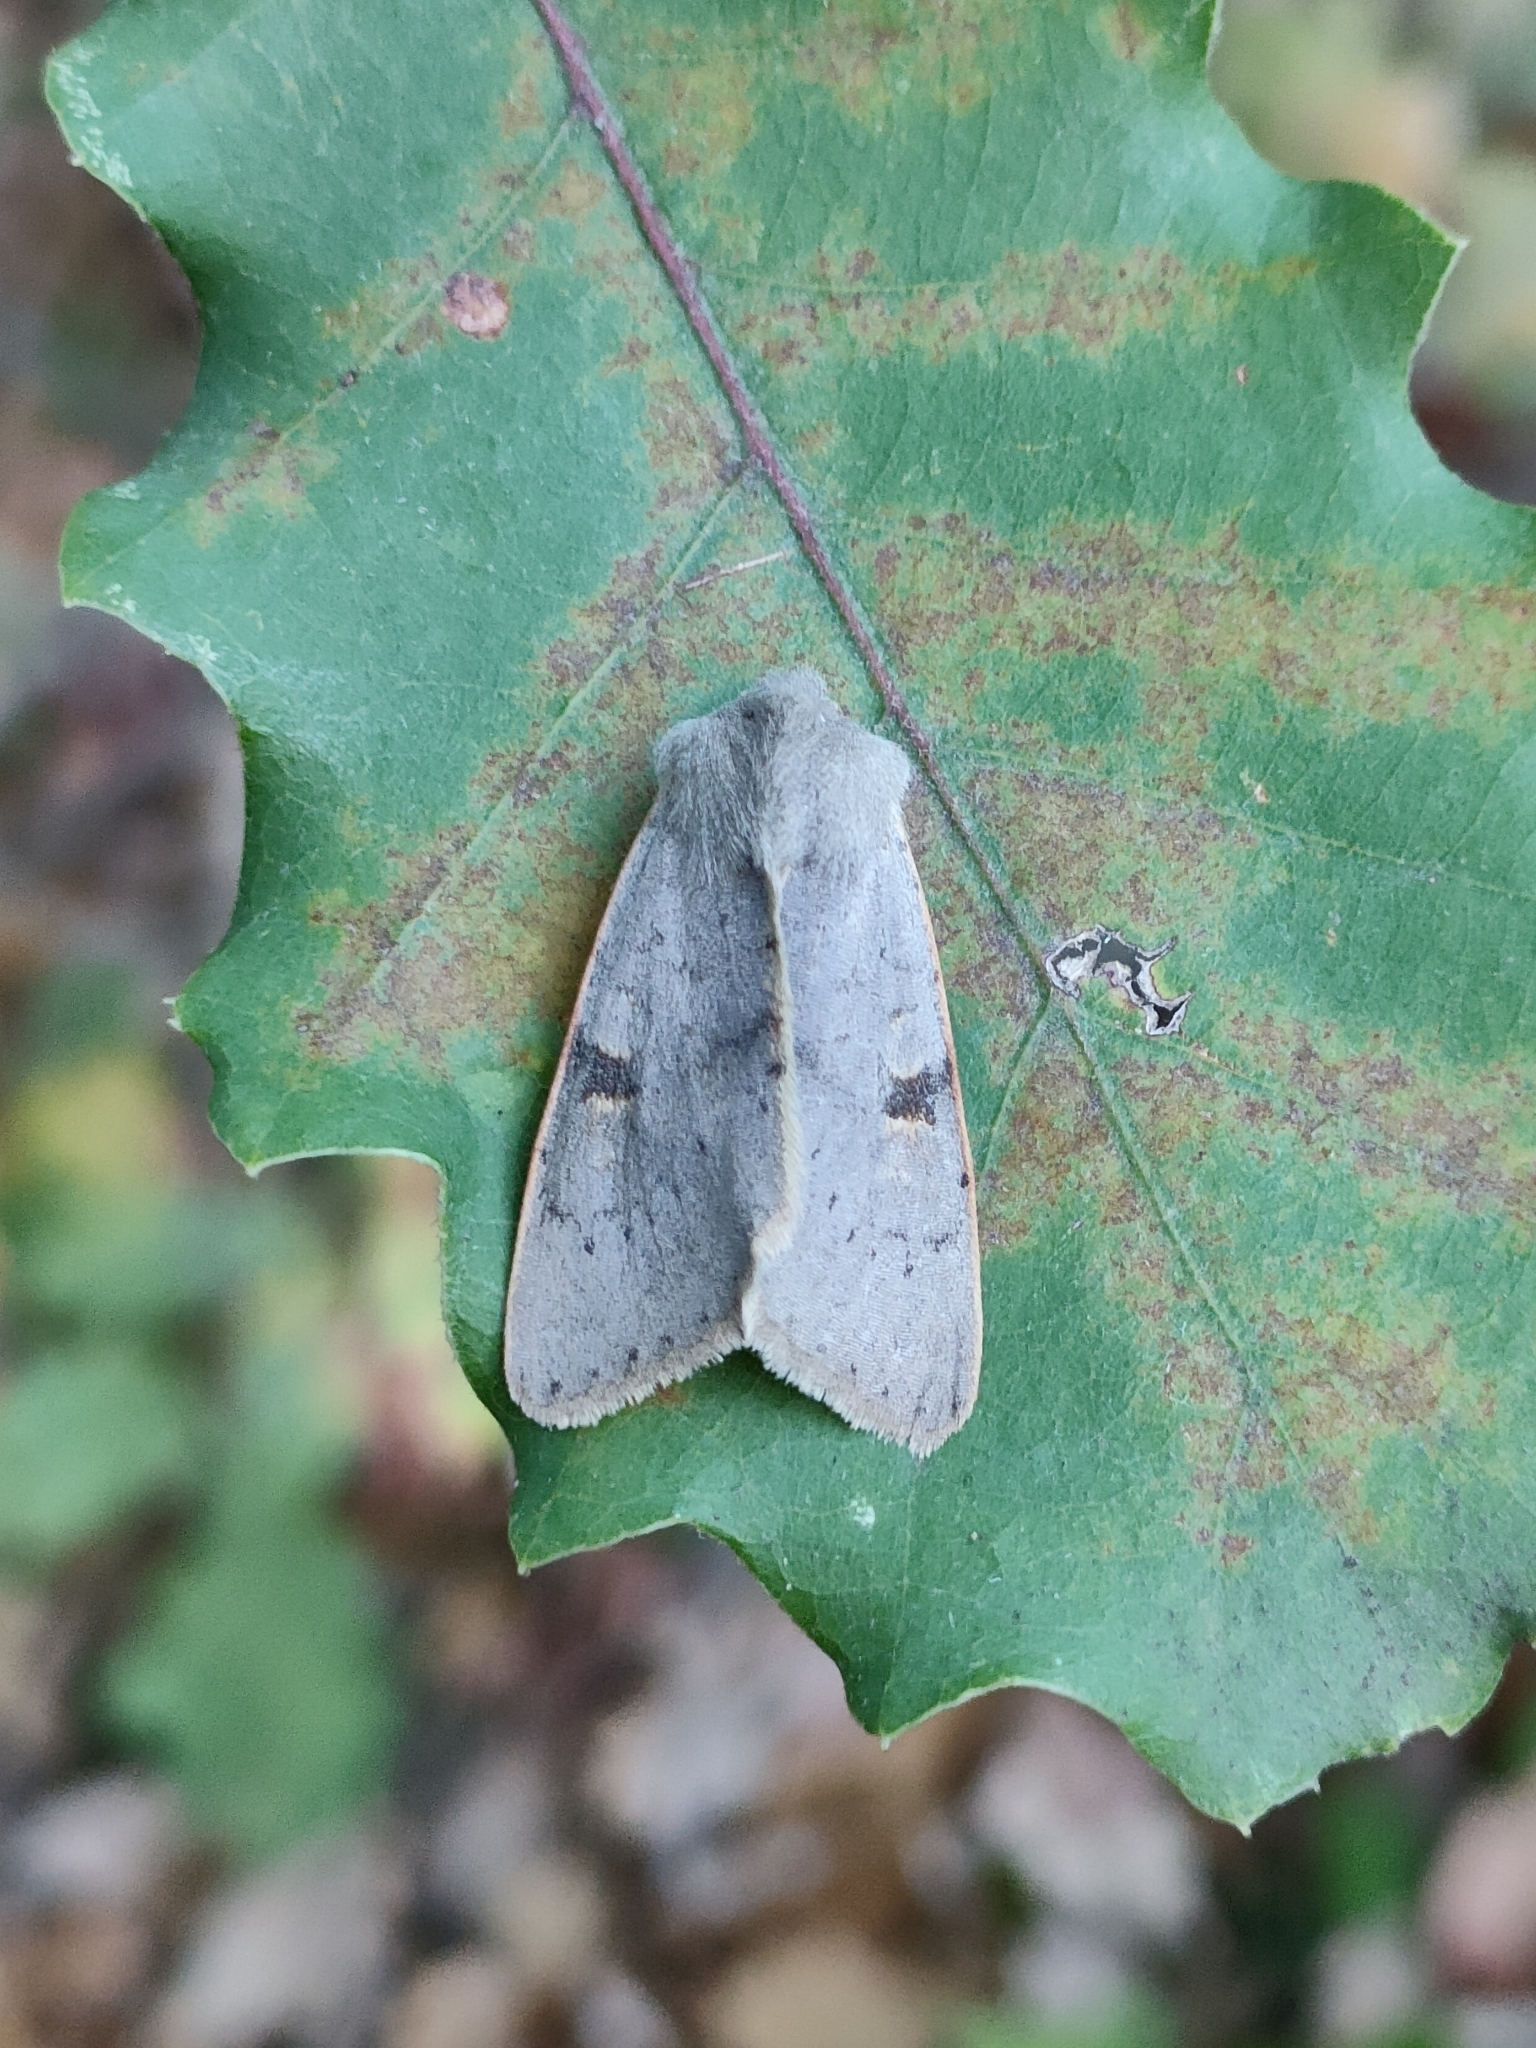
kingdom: Animalia
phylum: Arthropoda
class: Insecta
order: Lepidoptera
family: Noctuidae
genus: Ammopolia
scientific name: Ammopolia witzenmanni
